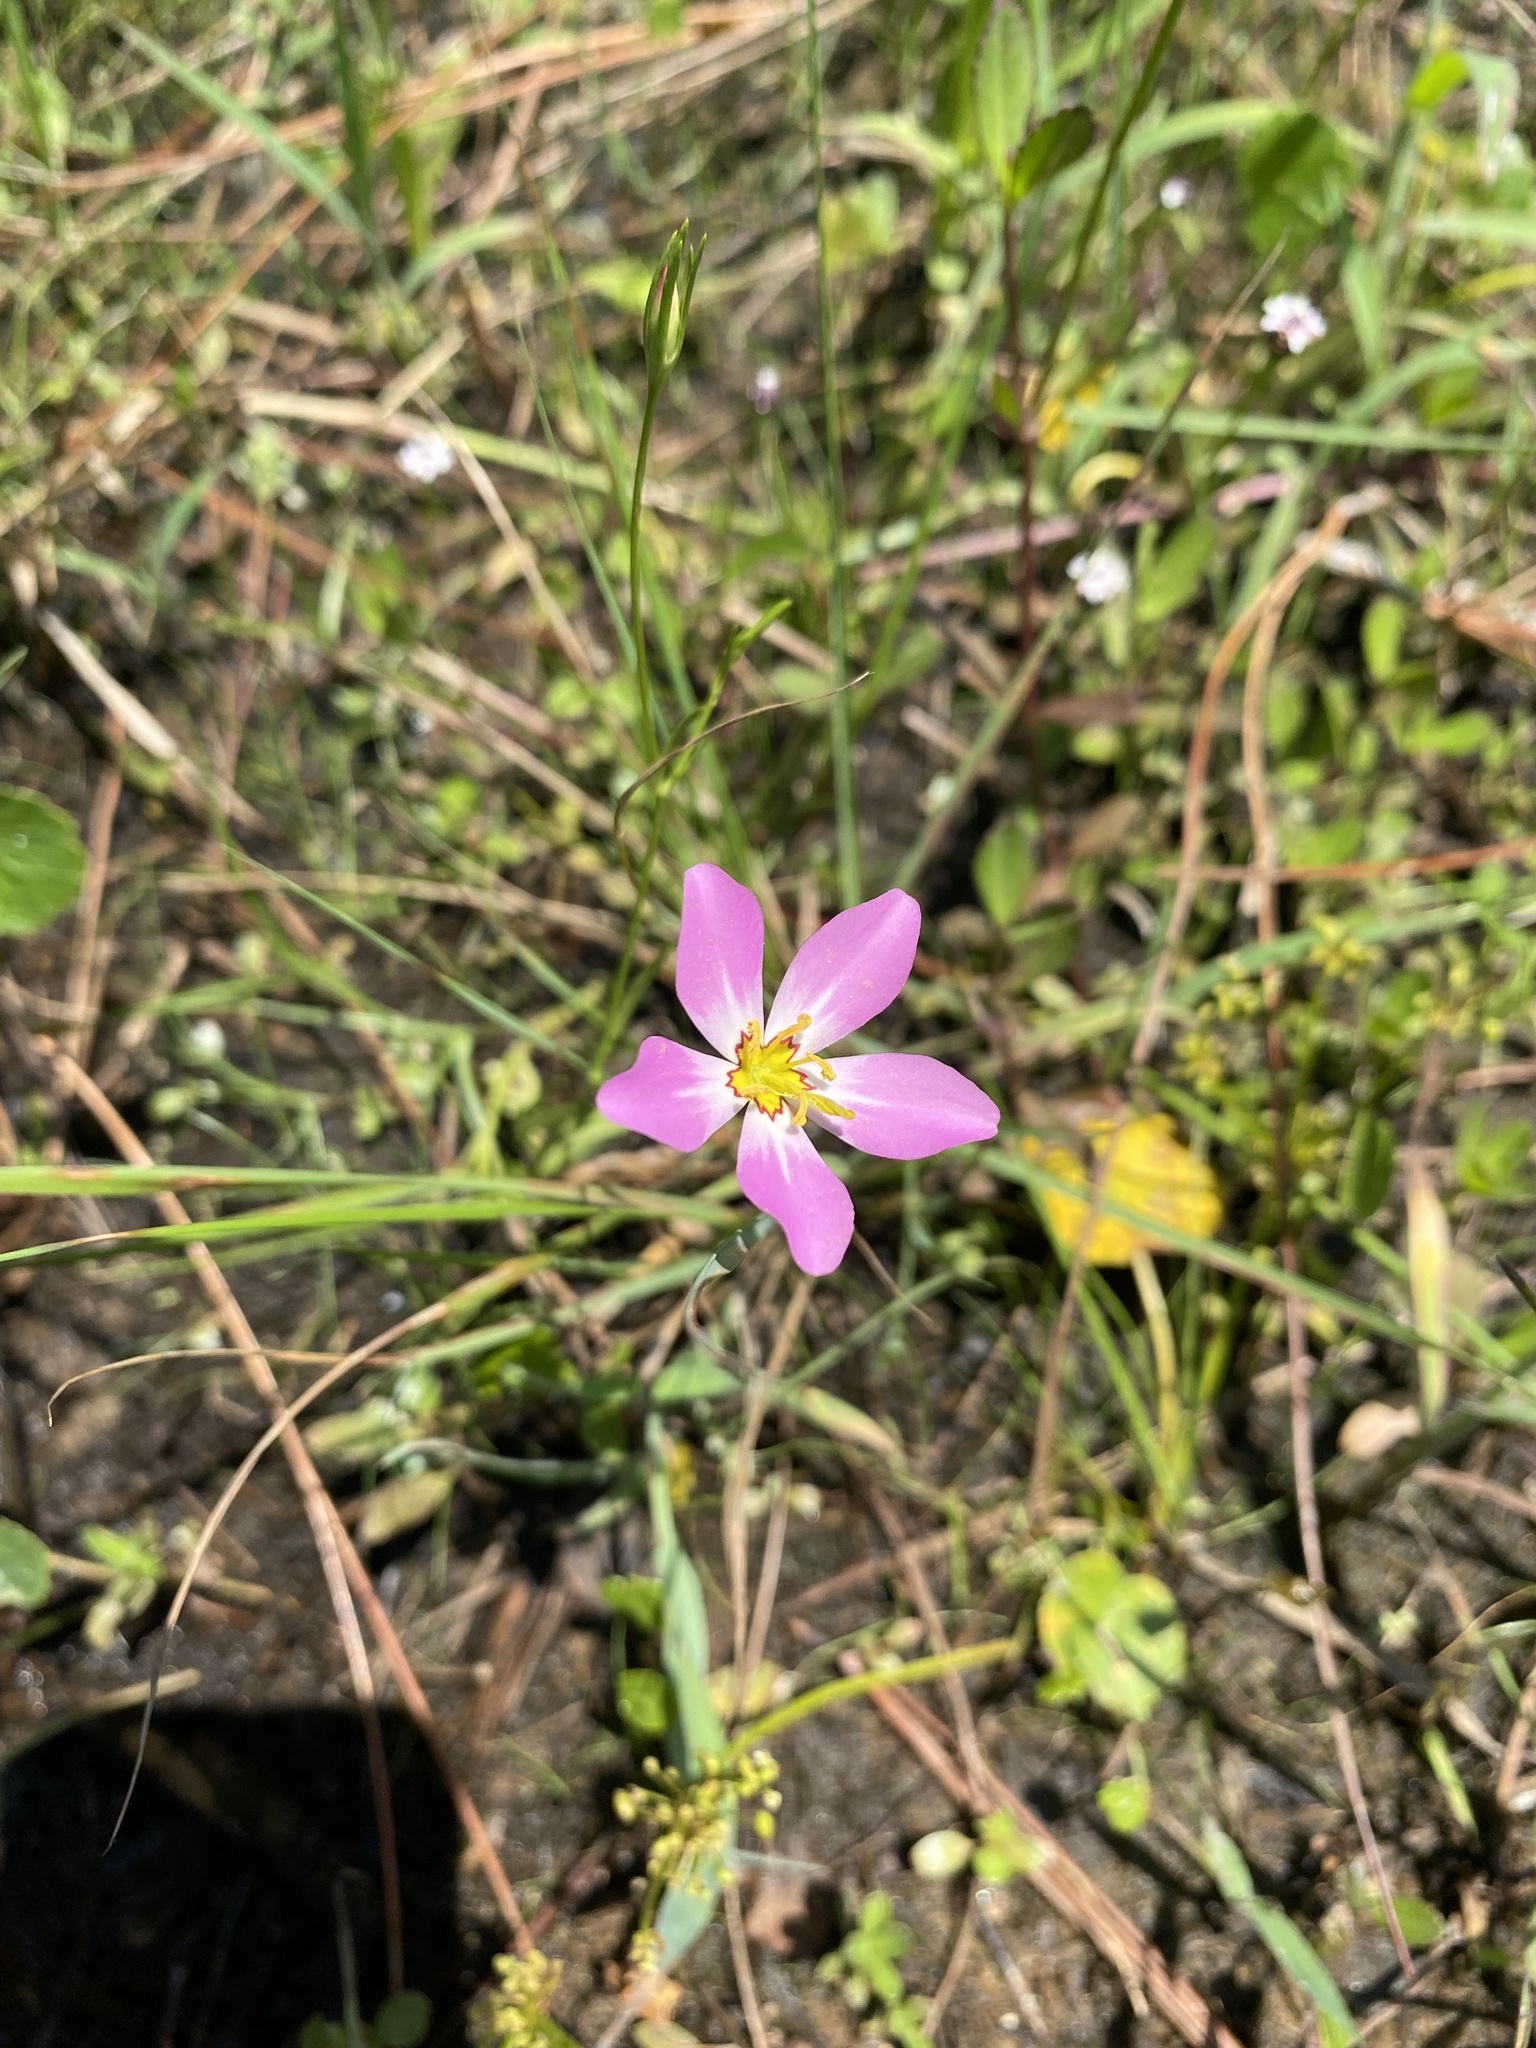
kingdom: Plantae
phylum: Tracheophyta
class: Magnoliopsida
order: Gentianales
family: Gentianaceae
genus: Sabatia
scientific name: Sabatia stellaris
